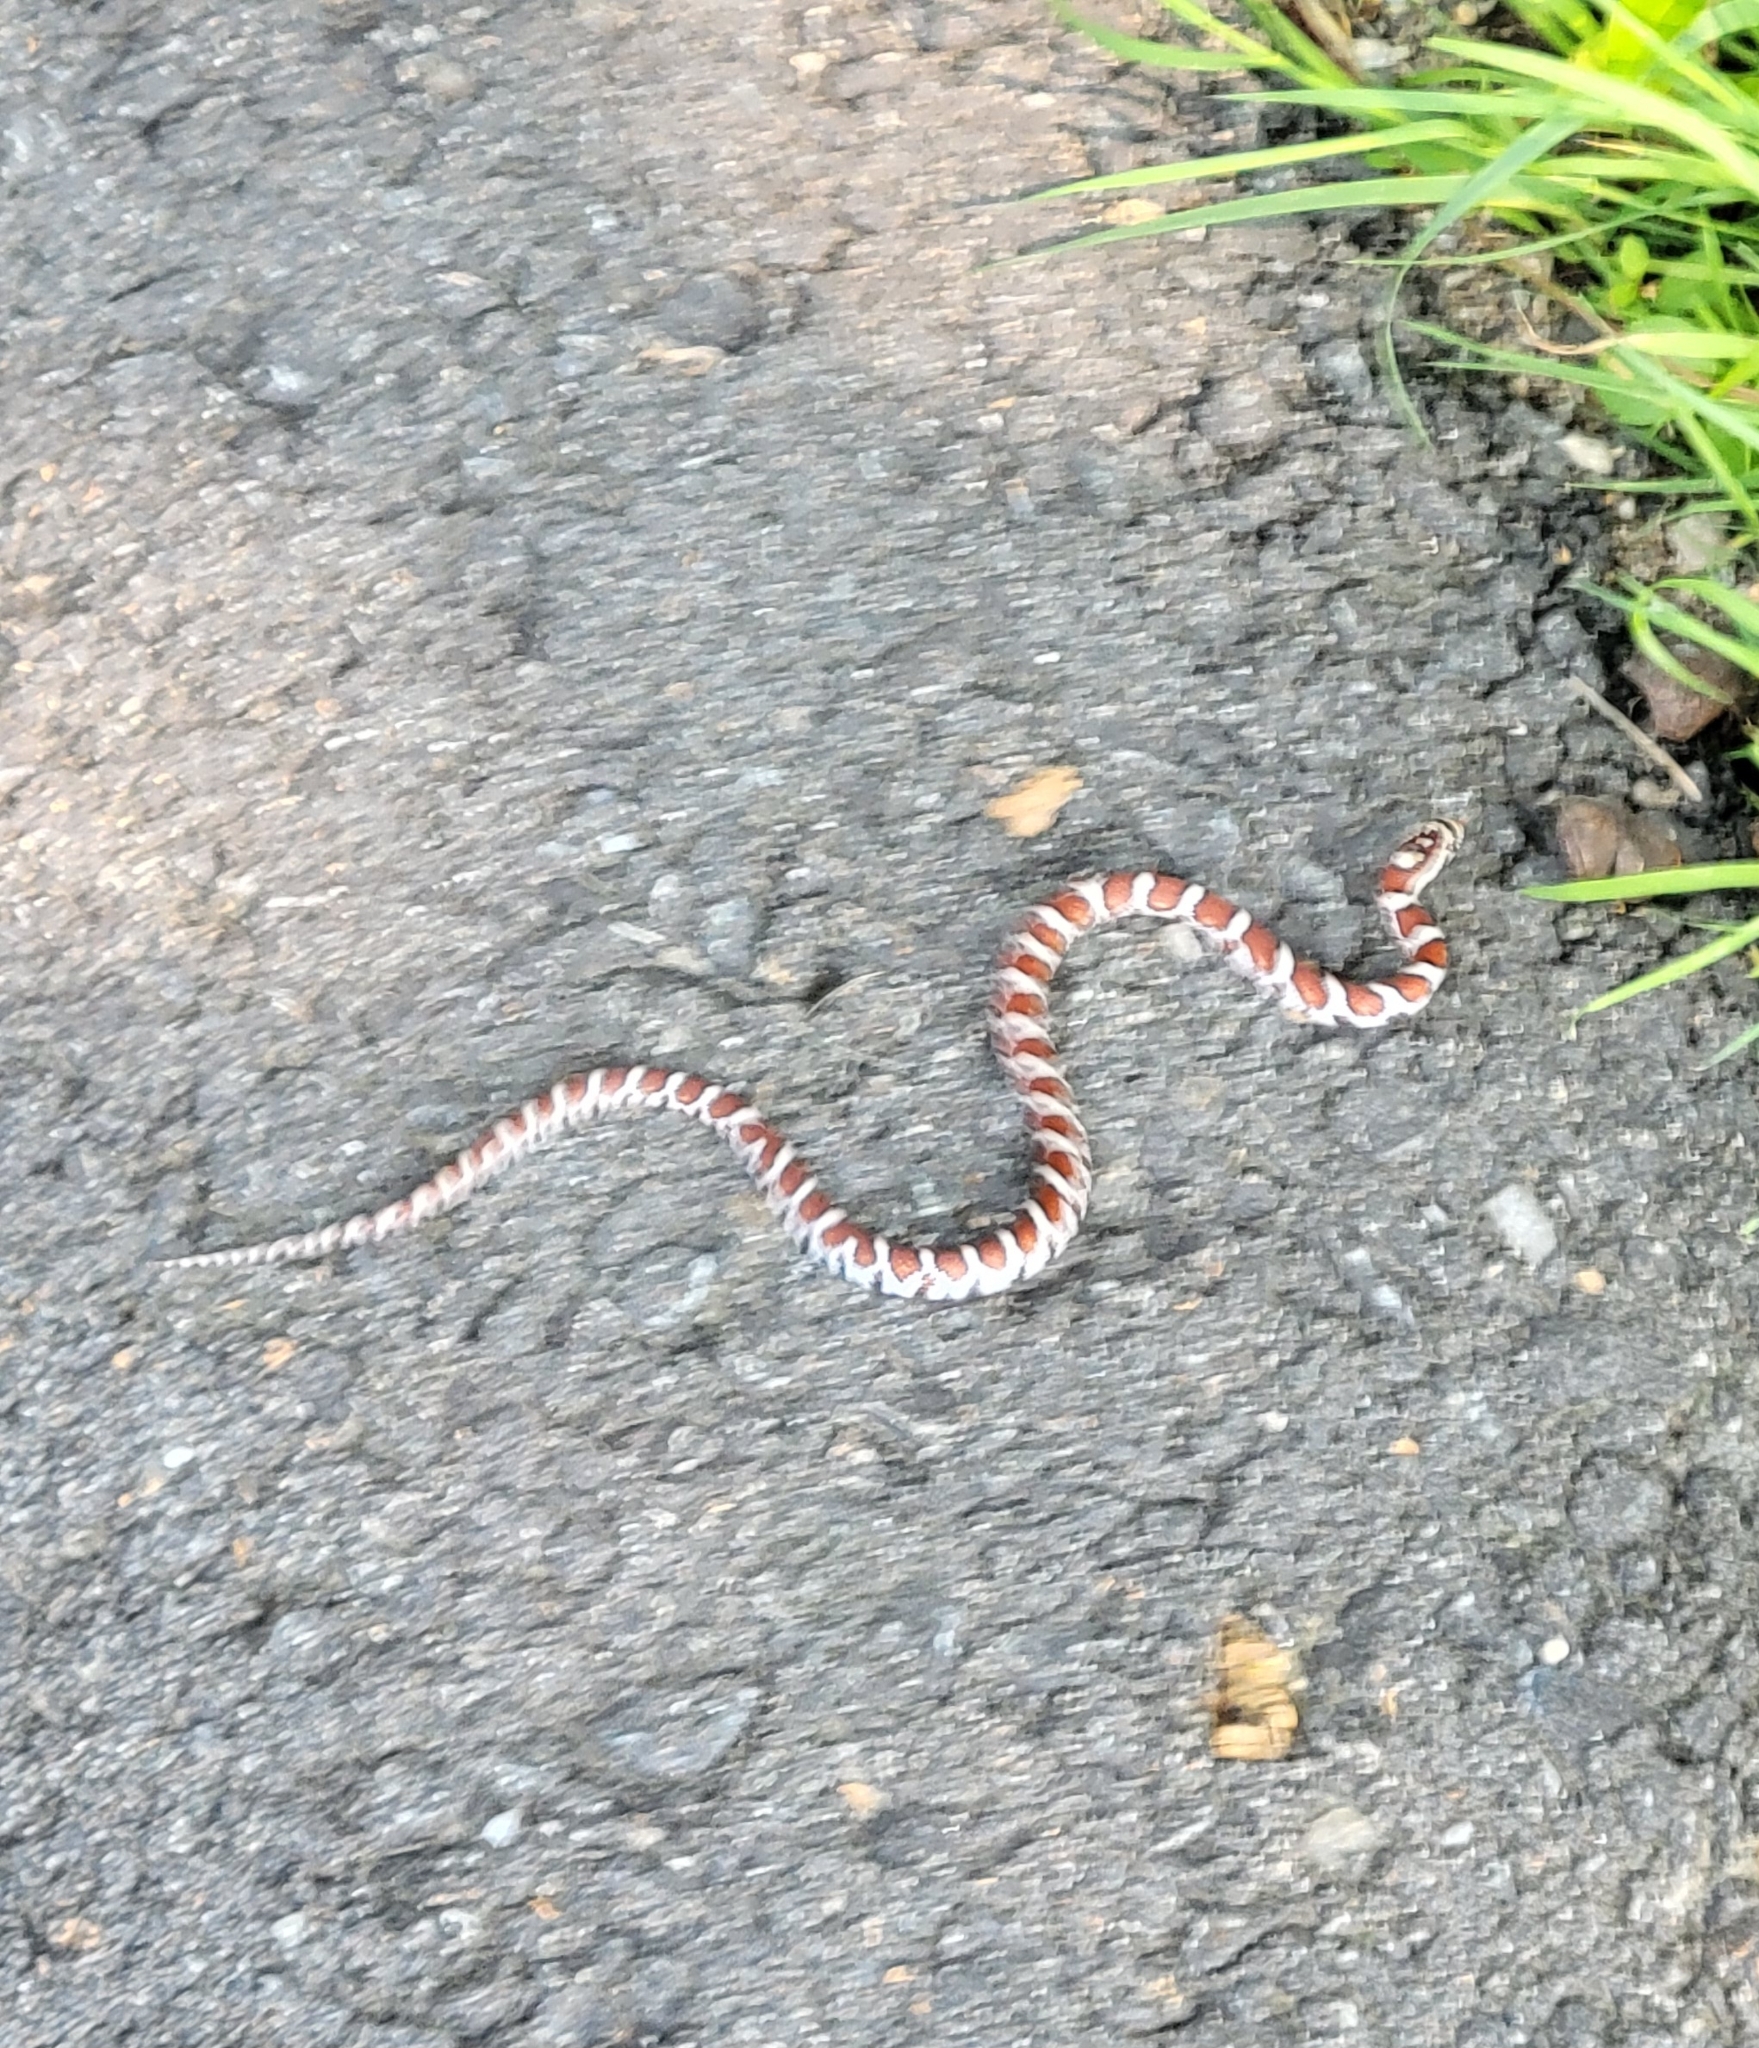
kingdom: Animalia
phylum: Chordata
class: Squamata
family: Colubridae
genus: Lampropeltis
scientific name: Lampropeltis triangulum
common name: Eastern milksnake
